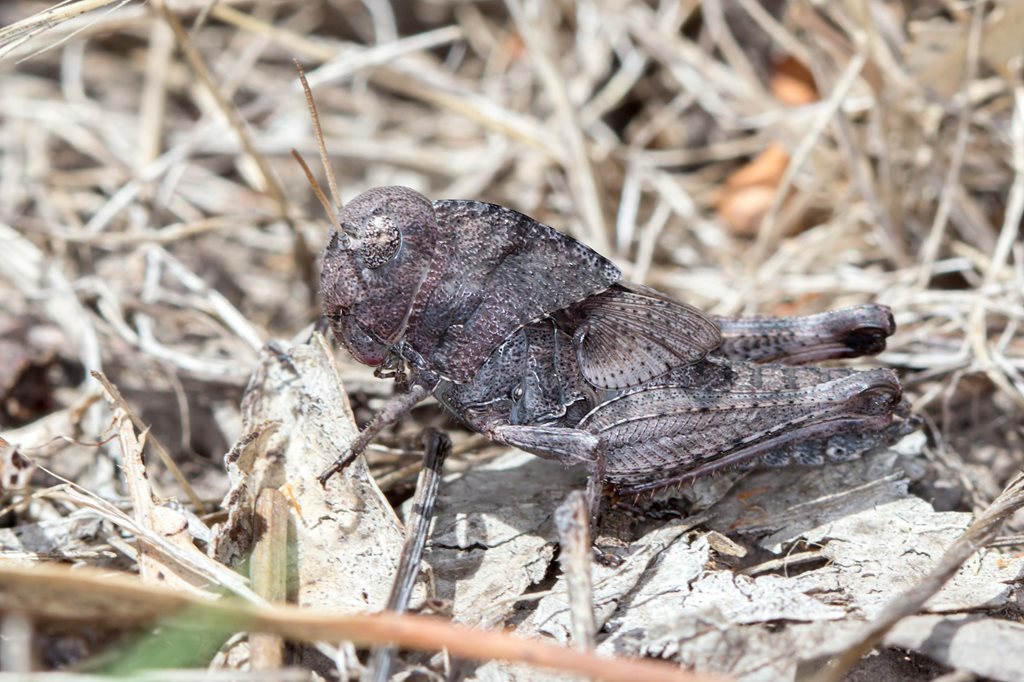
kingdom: Animalia
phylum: Arthropoda
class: Insecta
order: Orthoptera
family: Acrididae
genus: Gastrimargus
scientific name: Gastrimargus musicus
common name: Yellow-winged locust
